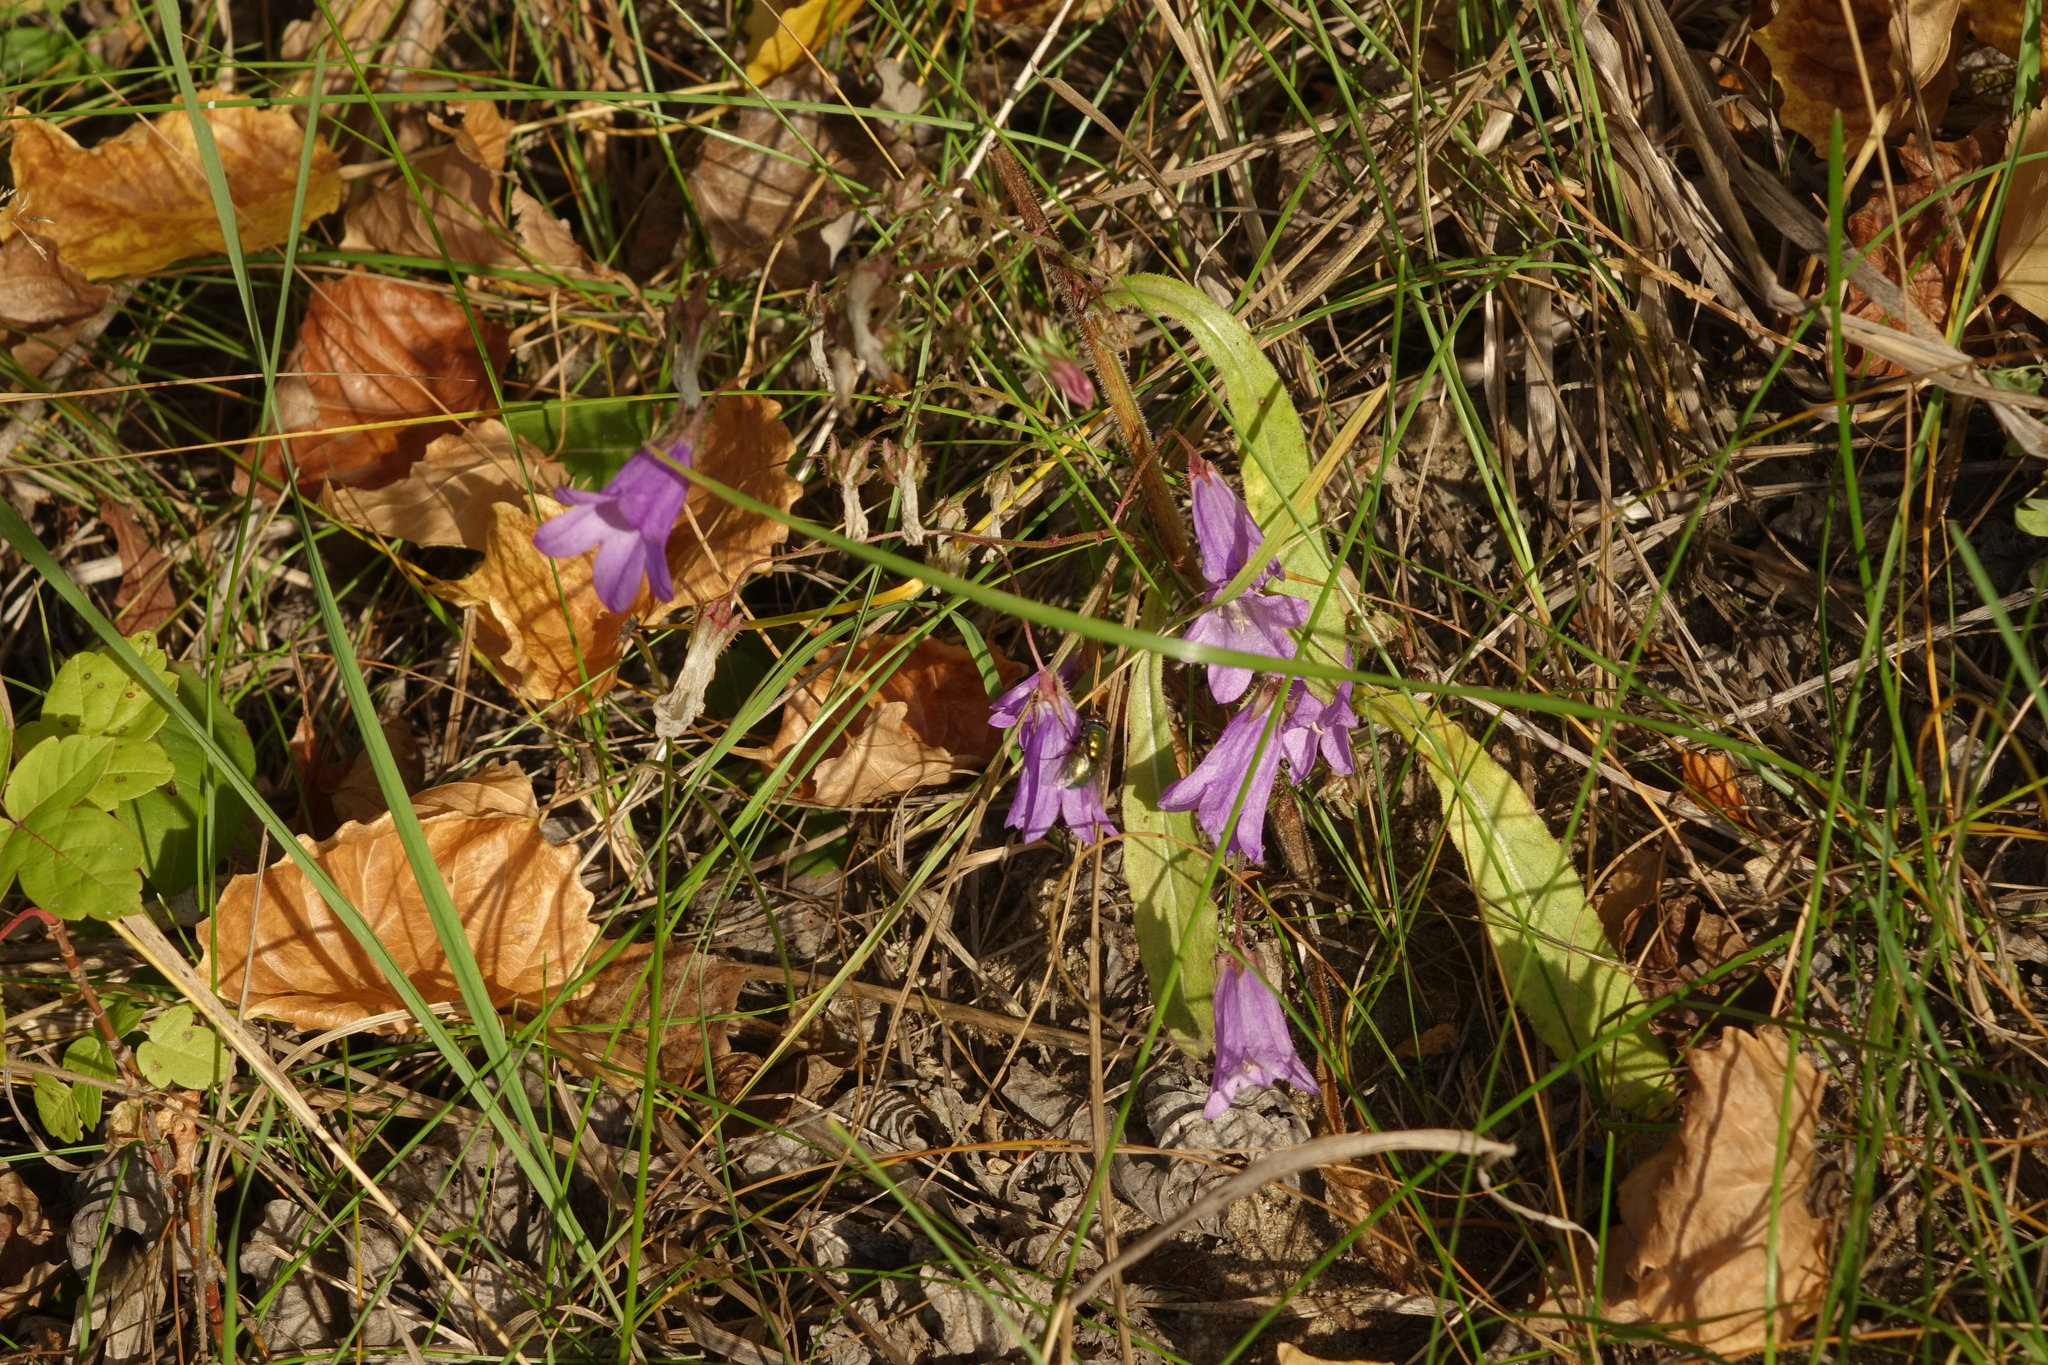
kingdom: Plantae
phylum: Tracheophyta
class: Magnoliopsida
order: Asterales
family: Campanulaceae
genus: Campanula
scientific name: Campanula sibirica
